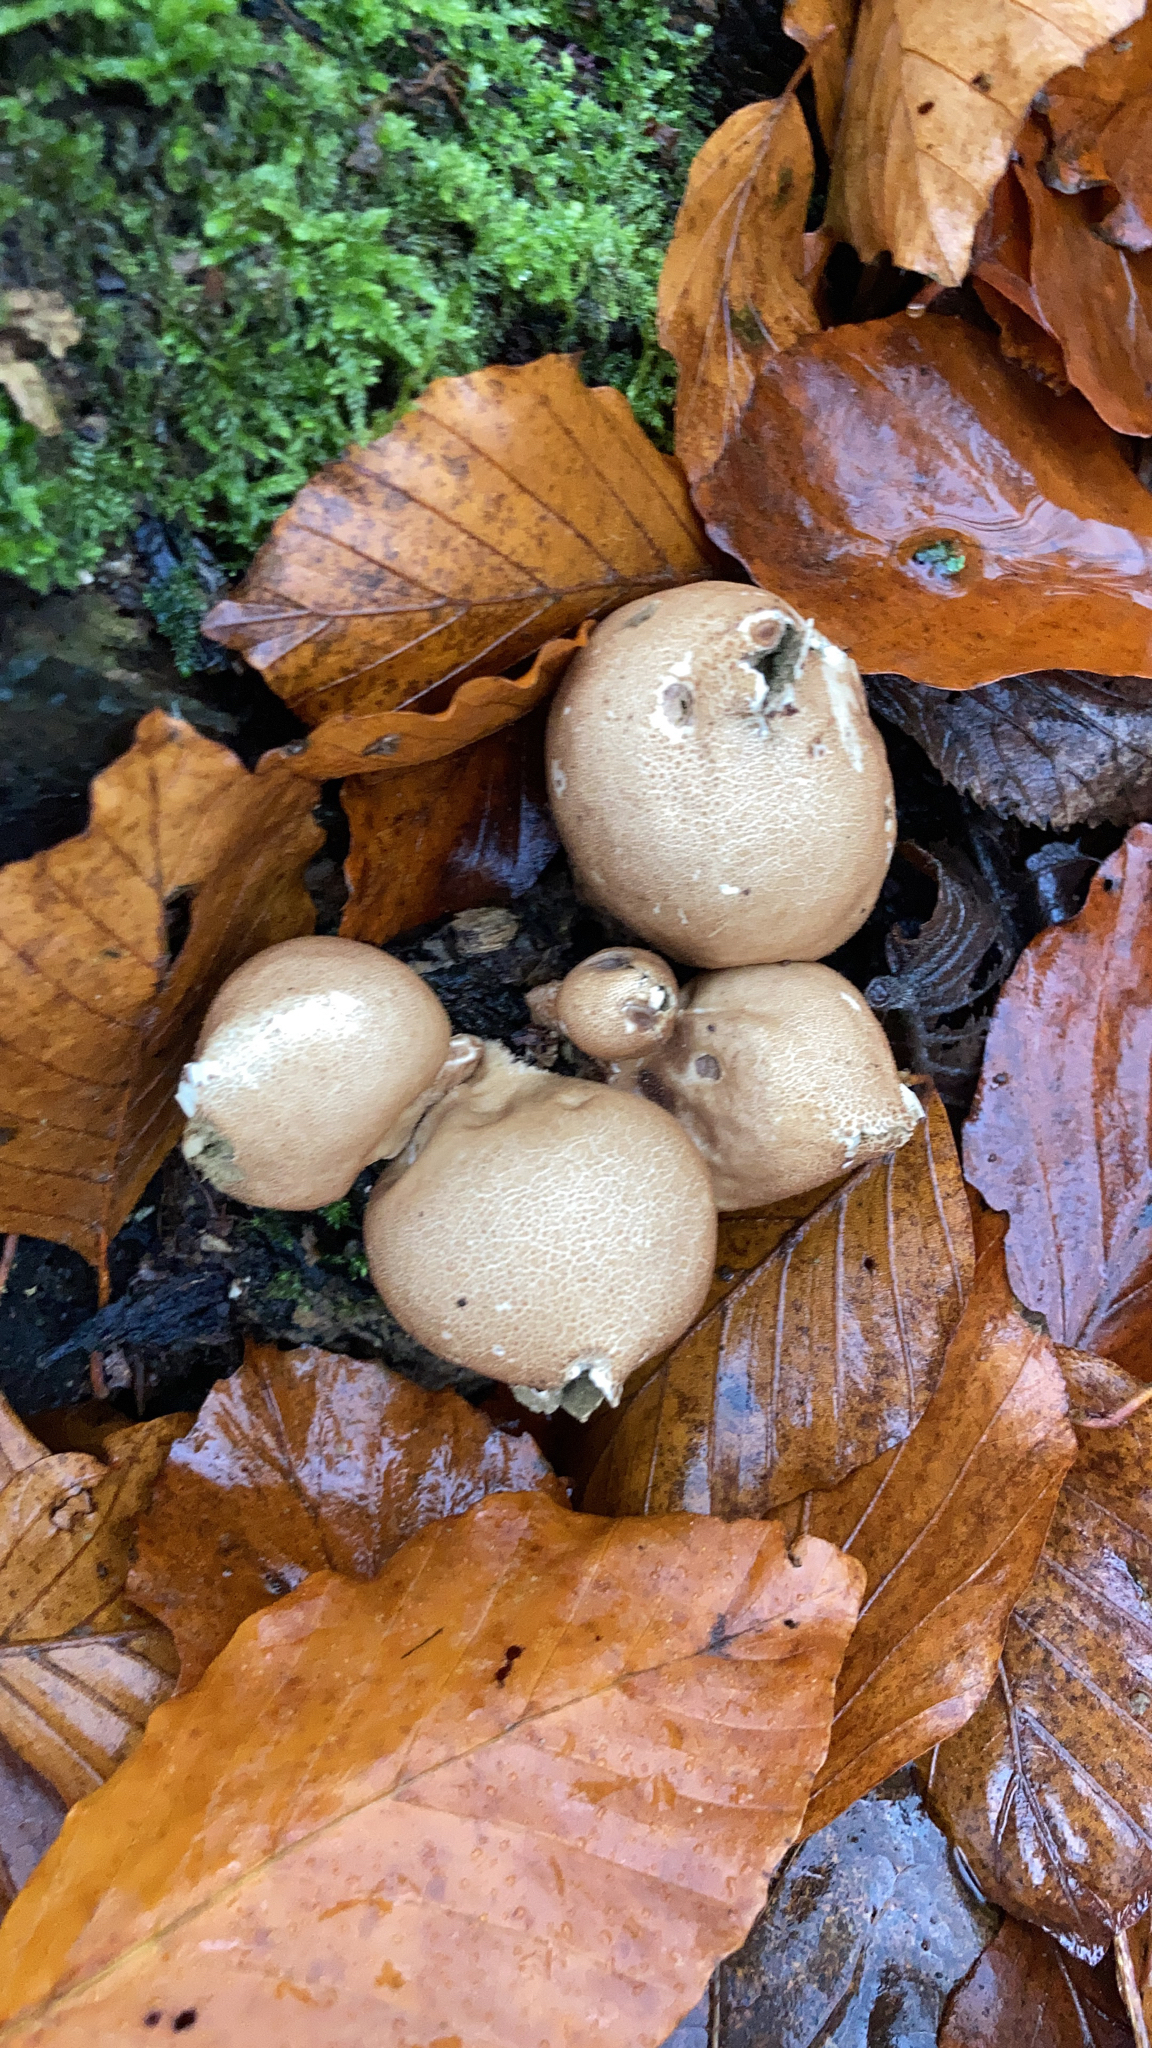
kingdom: Fungi
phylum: Basidiomycota
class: Agaricomycetes
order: Agaricales
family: Lycoperdaceae
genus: Apioperdon
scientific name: Apioperdon pyriforme
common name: Pear-shaped puffball
